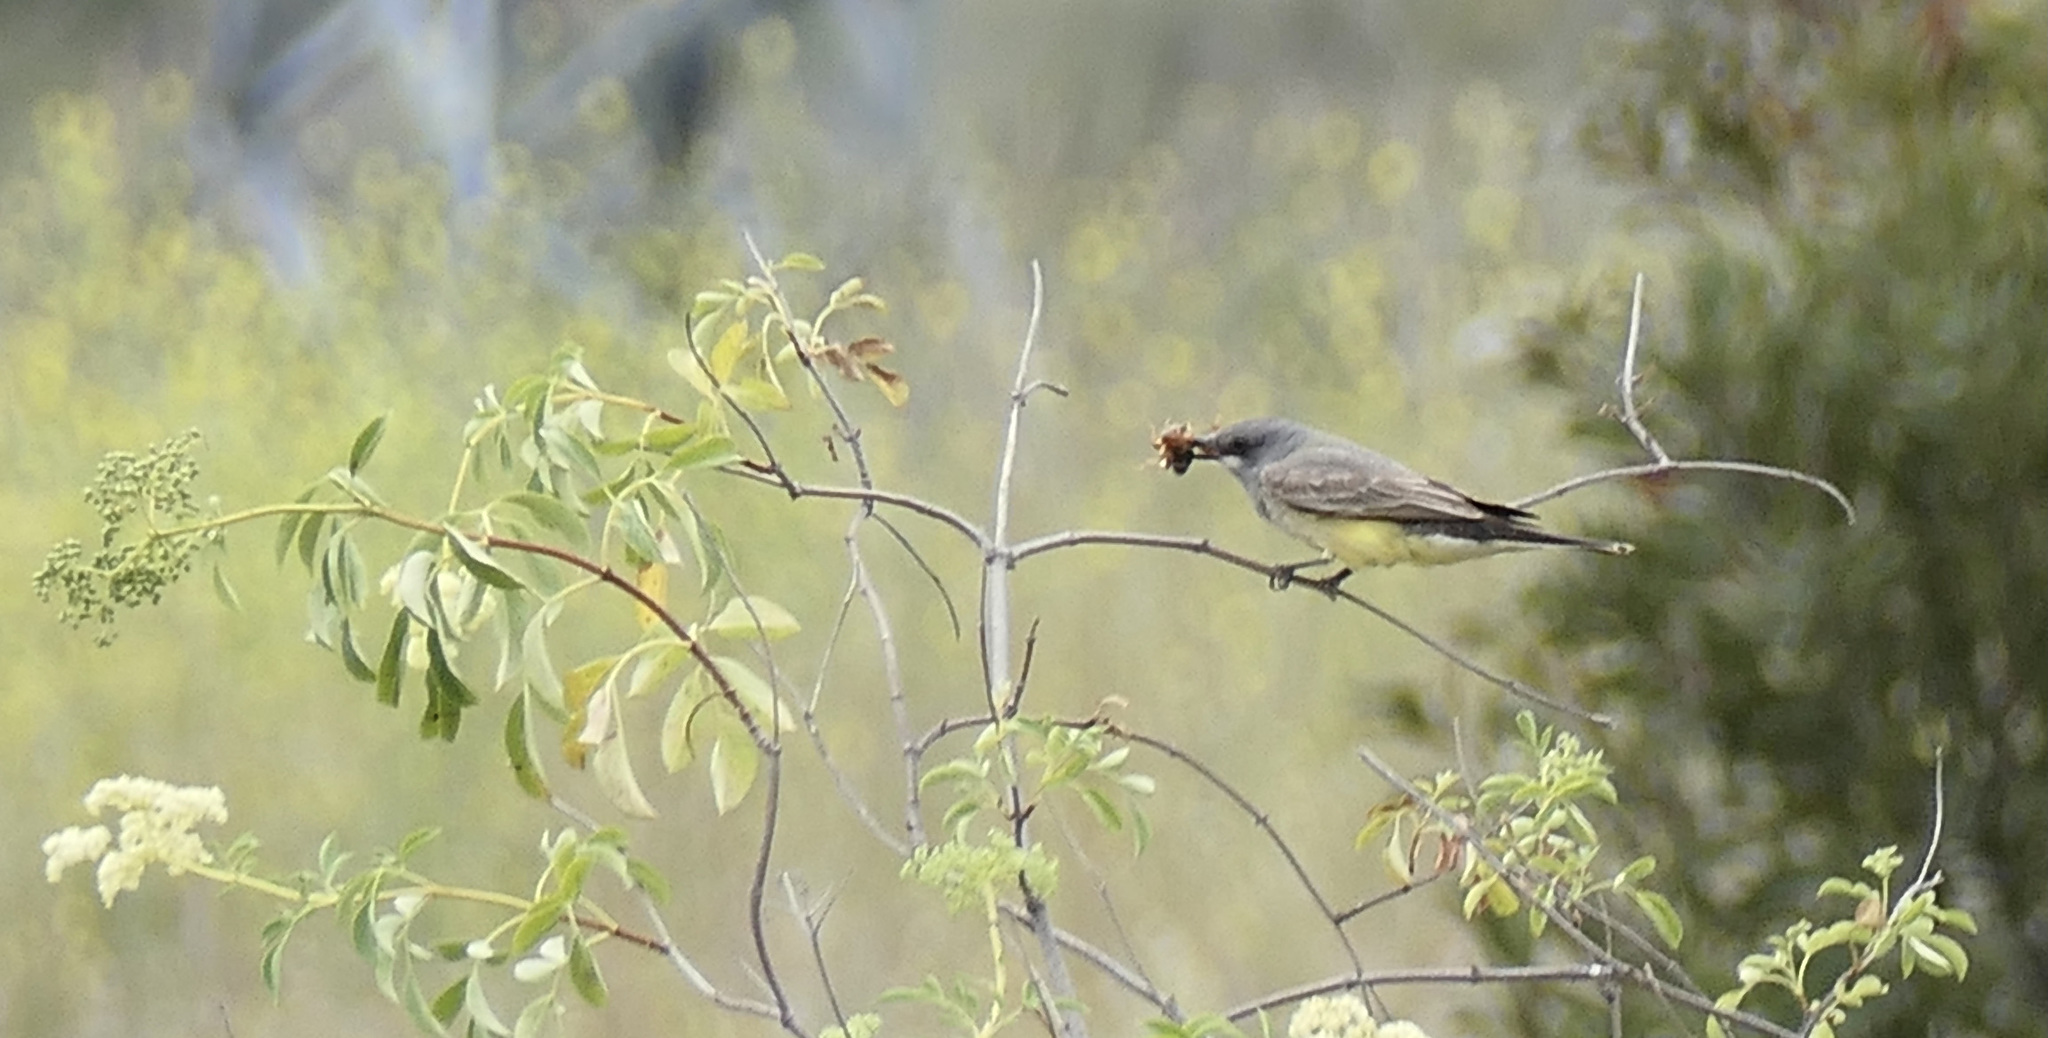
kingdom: Animalia
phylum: Chordata
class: Aves
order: Passeriformes
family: Tyrannidae
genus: Tyrannus
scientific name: Tyrannus vociferans
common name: Cassin's kingbird
